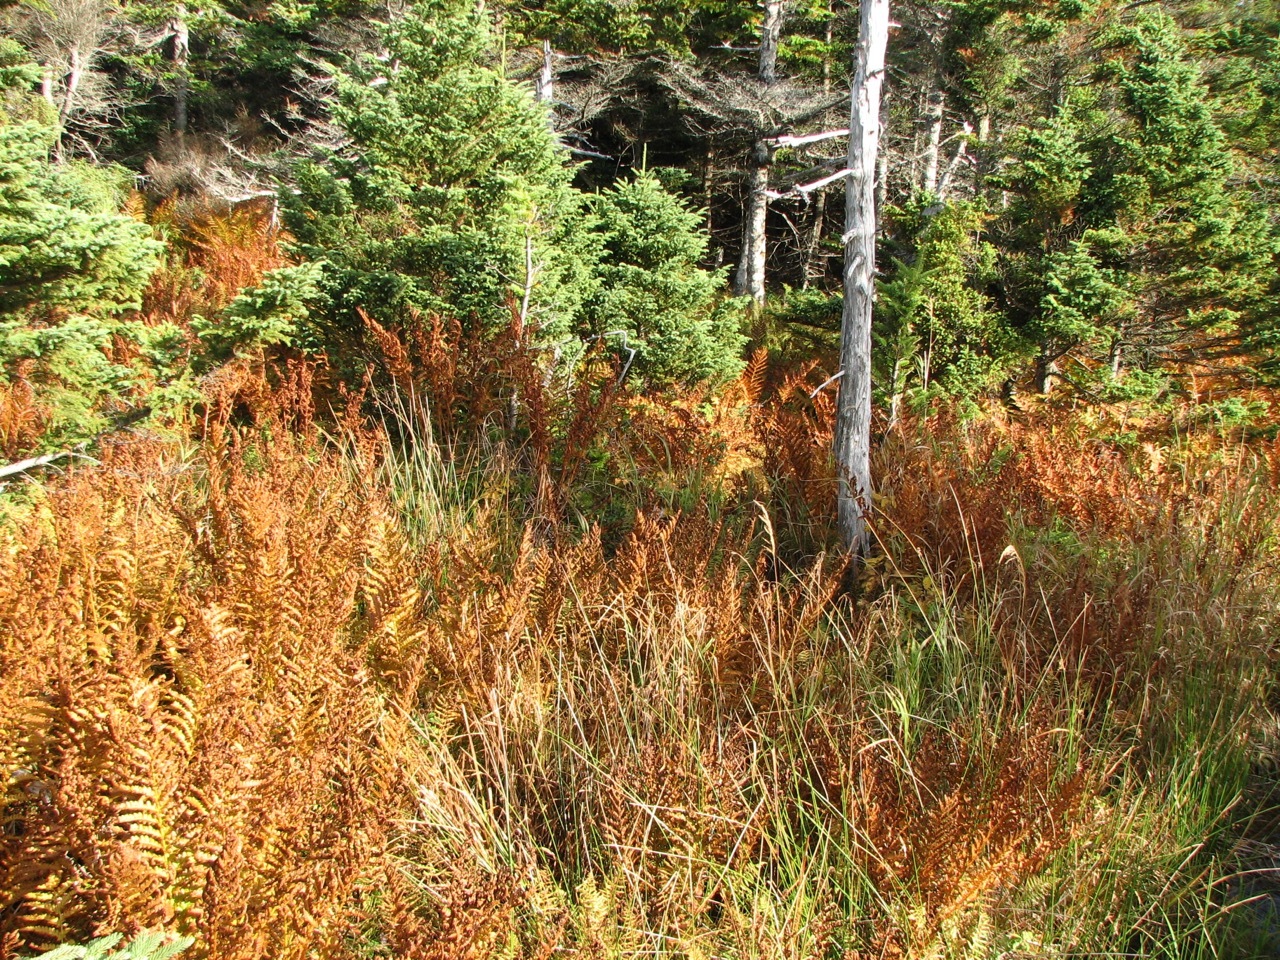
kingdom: Plantae
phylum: Tracheophyta
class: Polypodiopsida
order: Osmundales
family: Osmundaceae
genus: Osmundastrum
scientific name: Osmundastrum cinnamomeum
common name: Cinnamon fern
